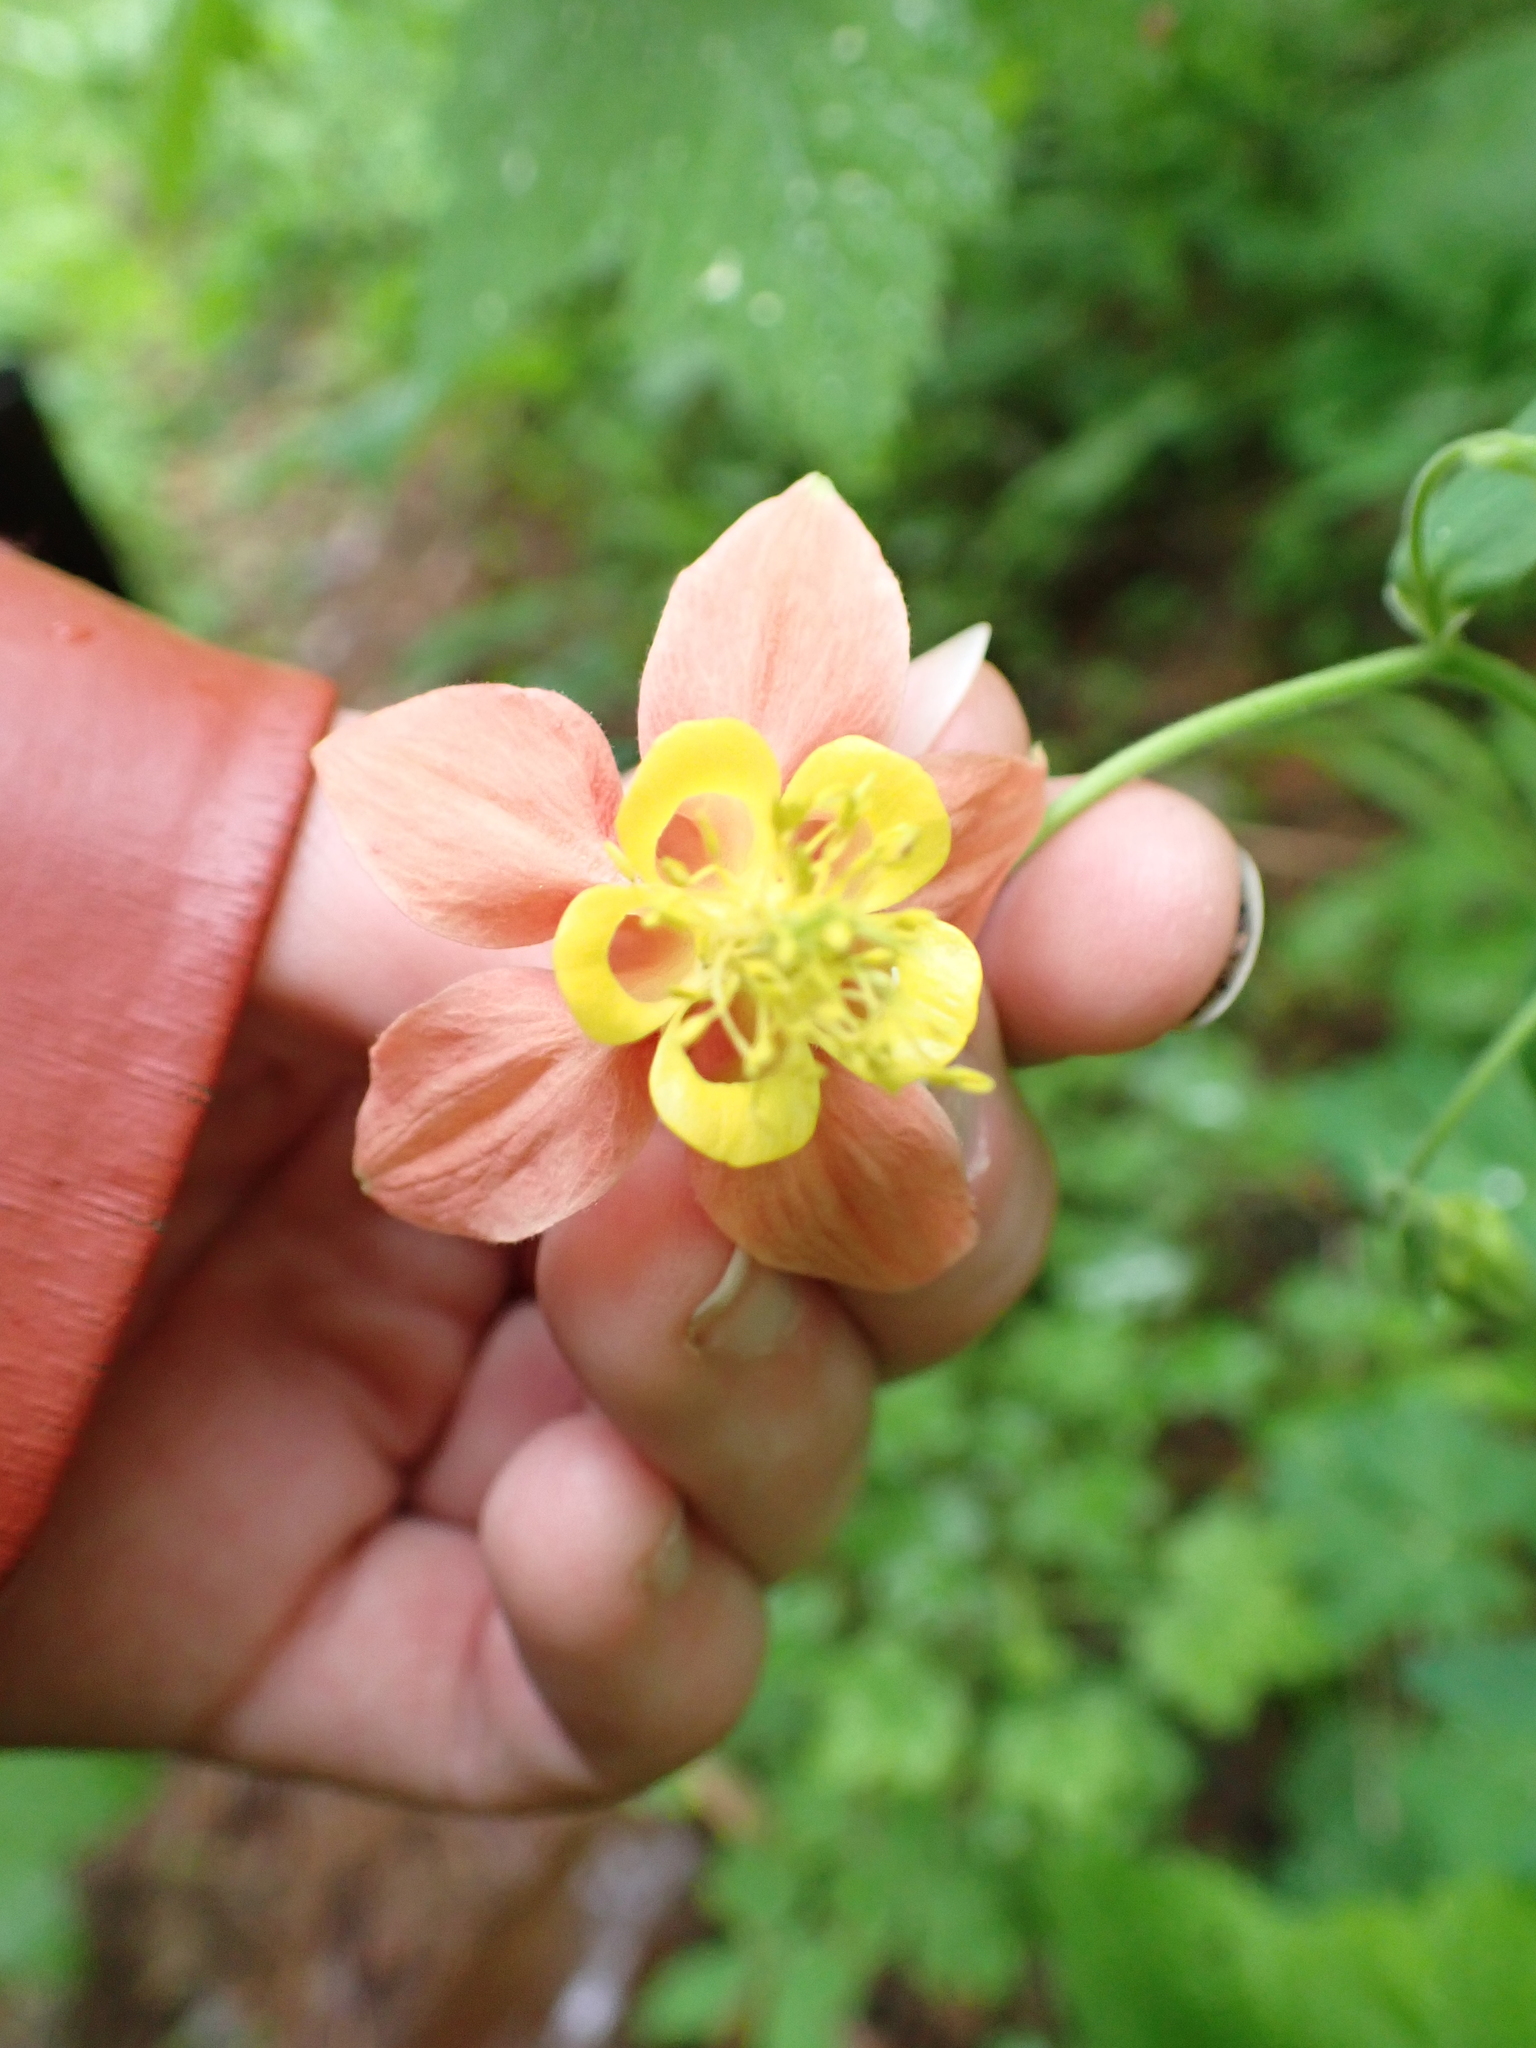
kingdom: Plantae
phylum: Tracheophyta
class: Magnoliopsida
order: Ranunculales
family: Ranunculaceae
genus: Aquilegia
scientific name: Aquilegia formosa
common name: Sitka columbine
